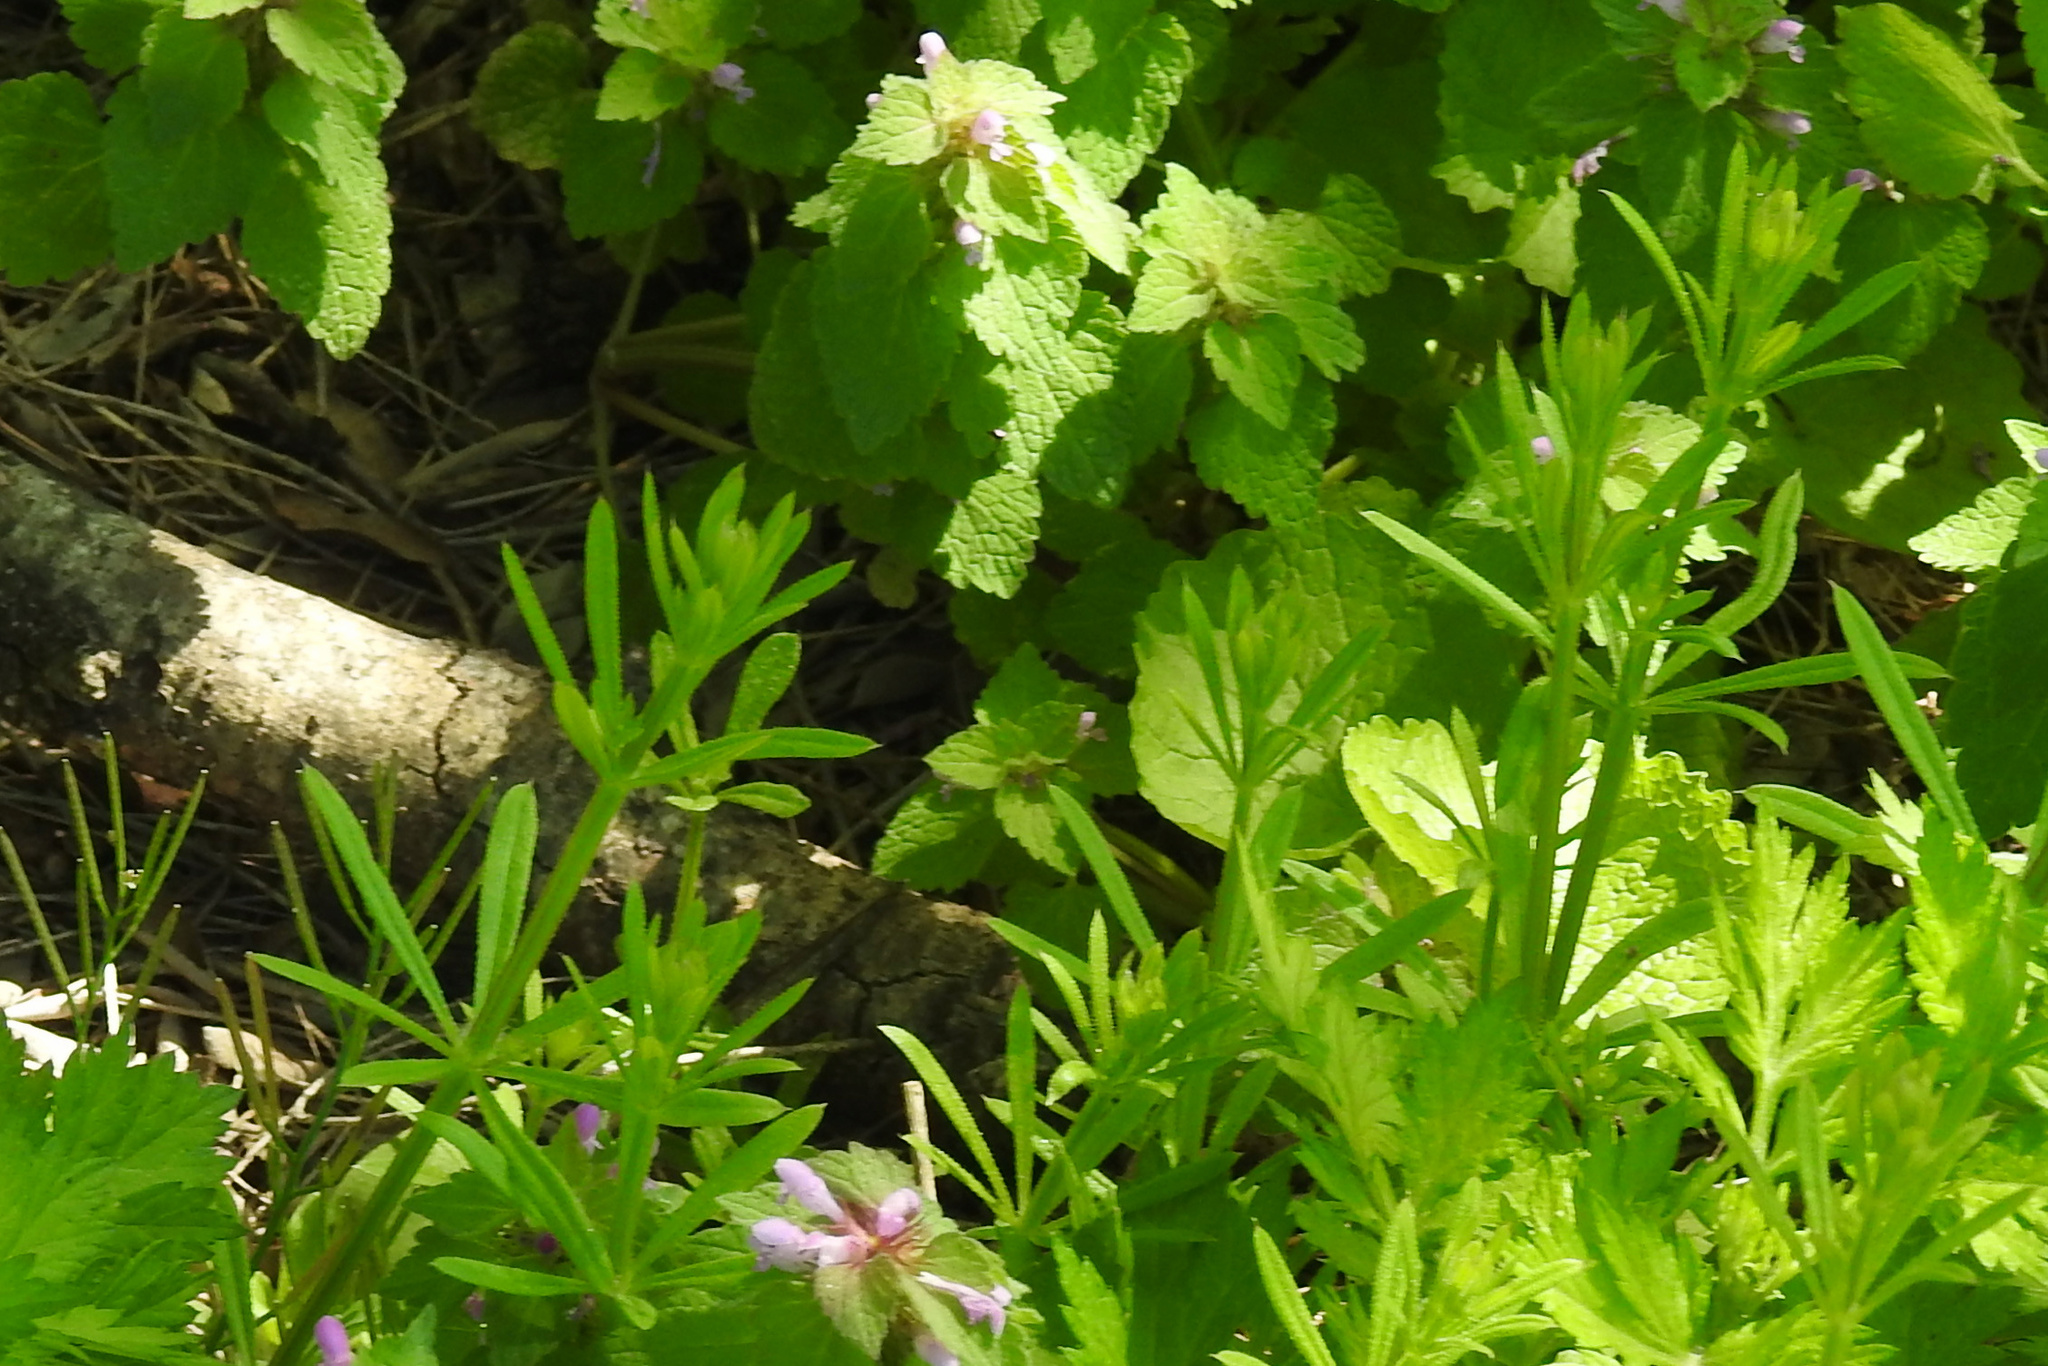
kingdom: Plantae
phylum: Tracheophyta
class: Magnoliopsida
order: Gentianales
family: Rubiaceae
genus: Galium
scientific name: Galium aparine
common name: Cleavers
